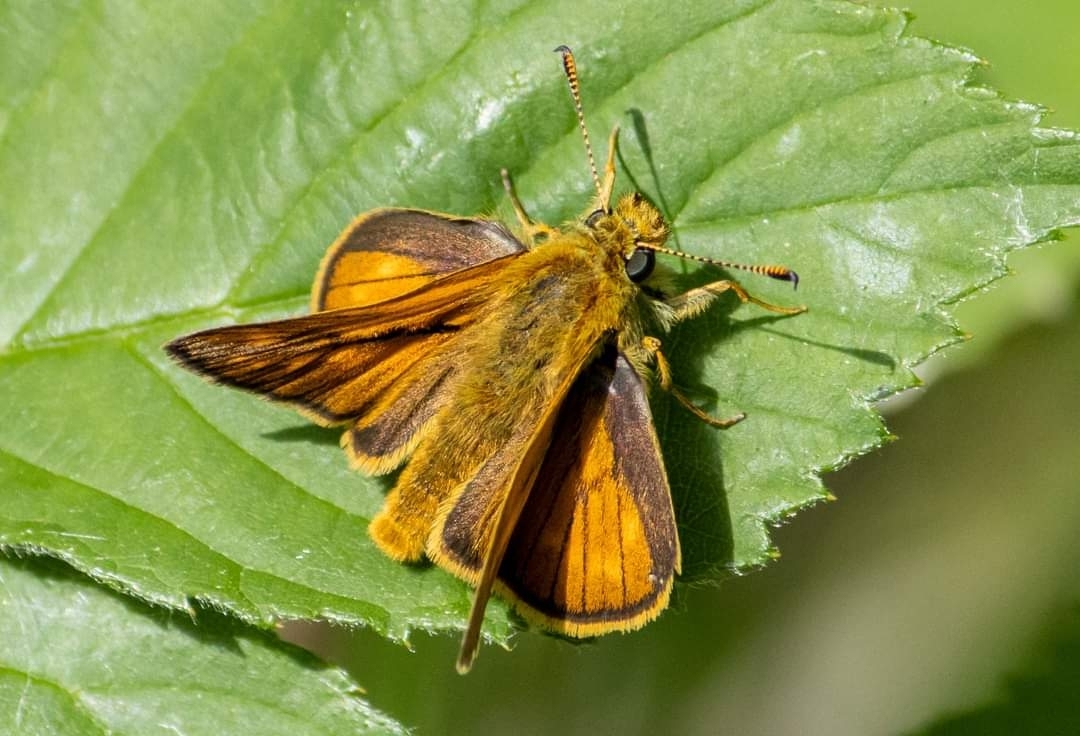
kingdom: Animalia
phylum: Arthropoda
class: Insecta
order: Lepidoptera
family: Hesperiidae
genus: Ochlodes
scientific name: Ochlodes venata
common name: Large skipper
